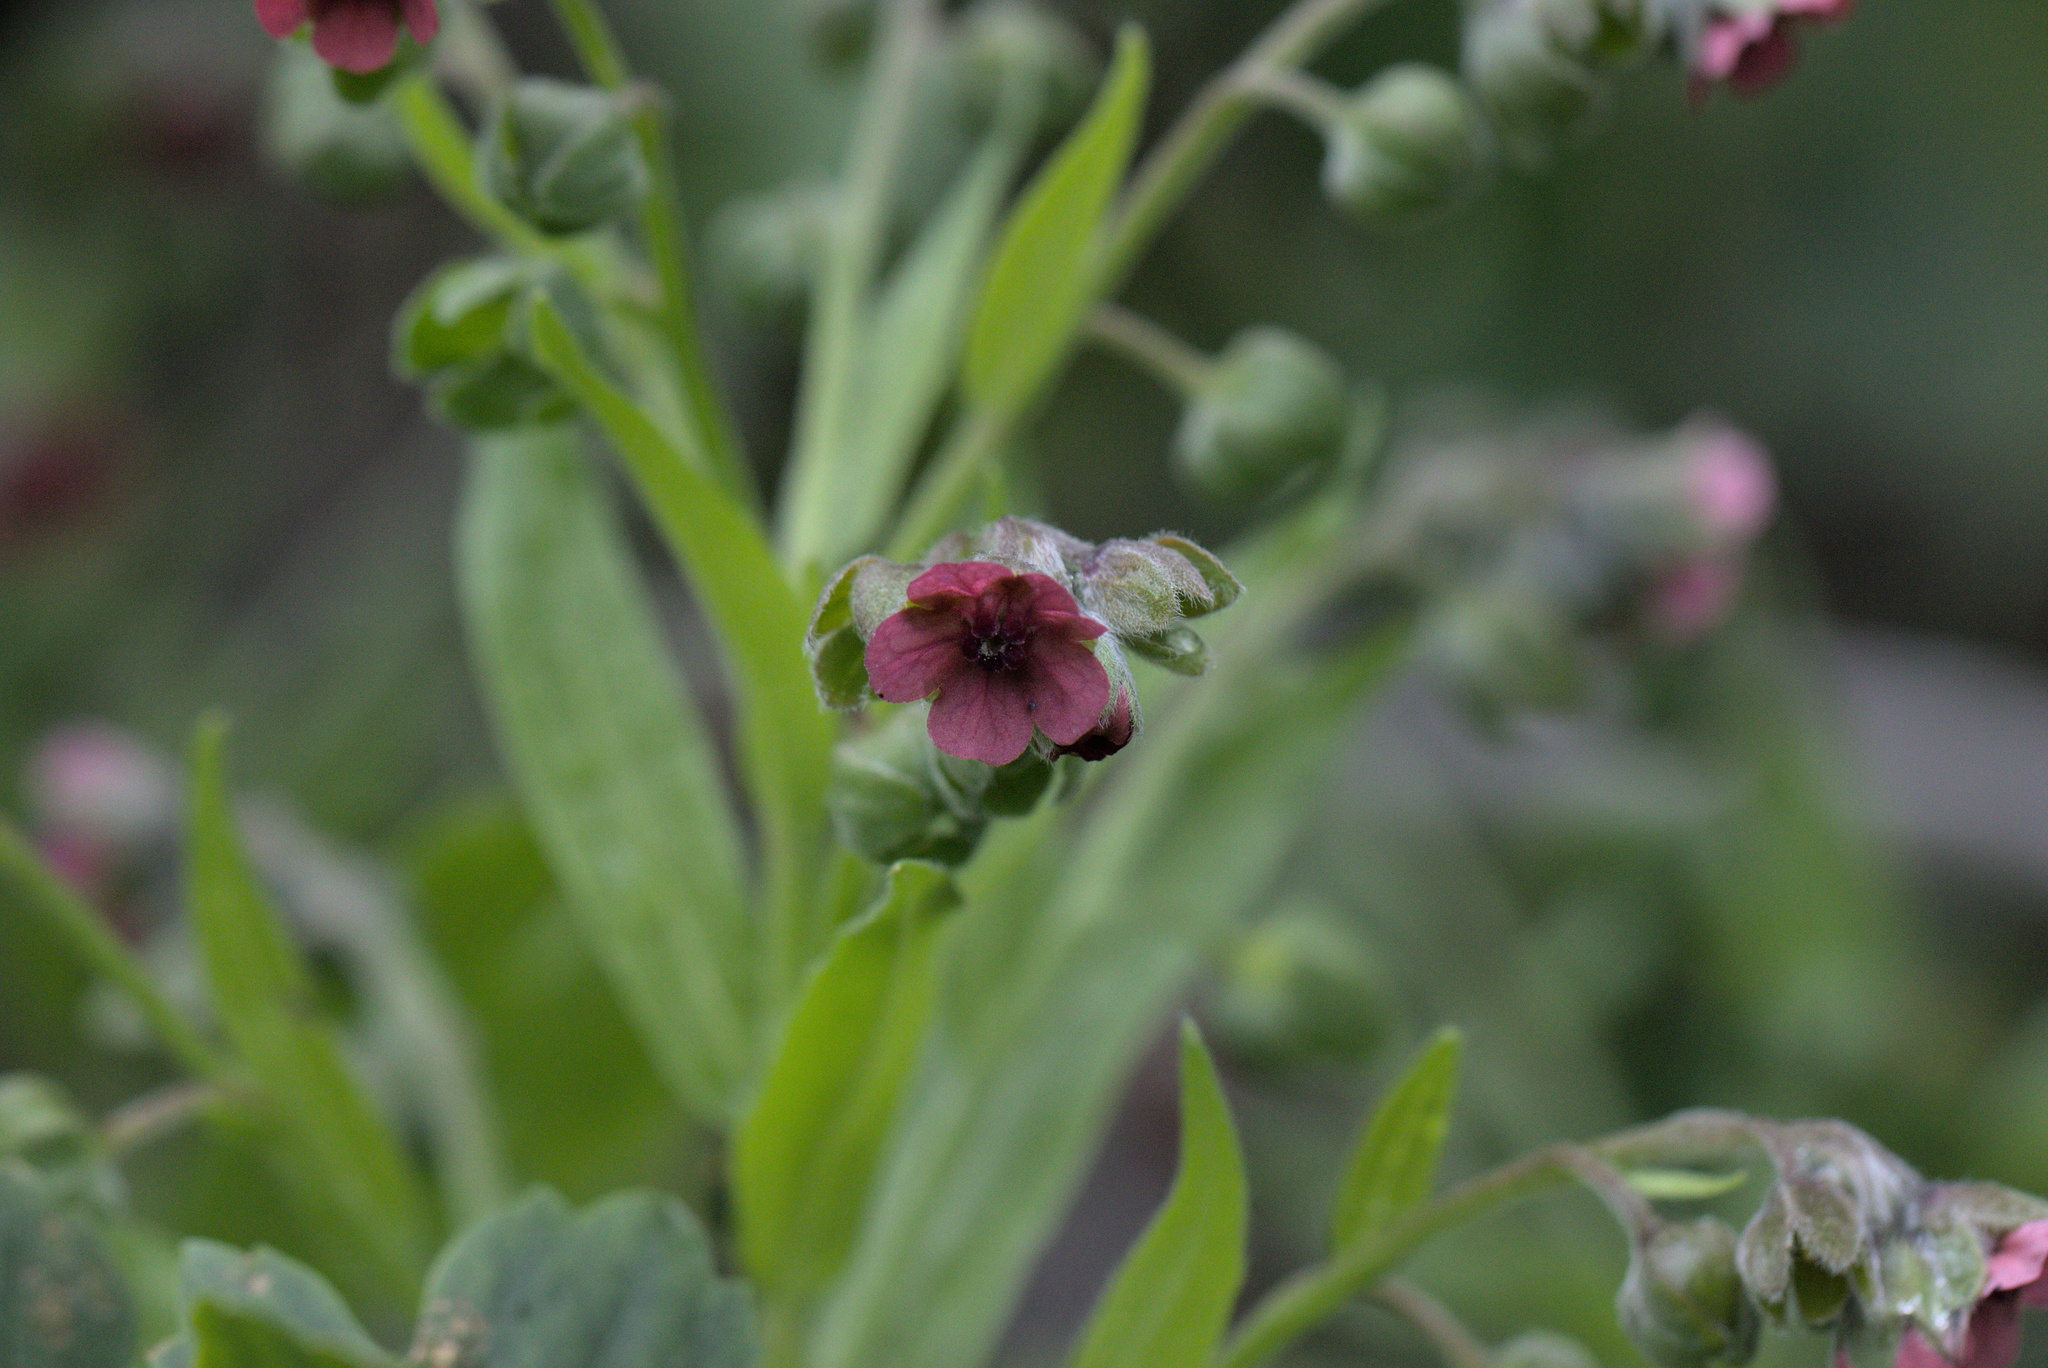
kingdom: Plantae
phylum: Tracheophyta
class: Magnoliopsida
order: Boraginales
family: Boraginaceae
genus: Cynoglossum
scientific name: Cynoglossum officinale
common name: Hound's-tongue
